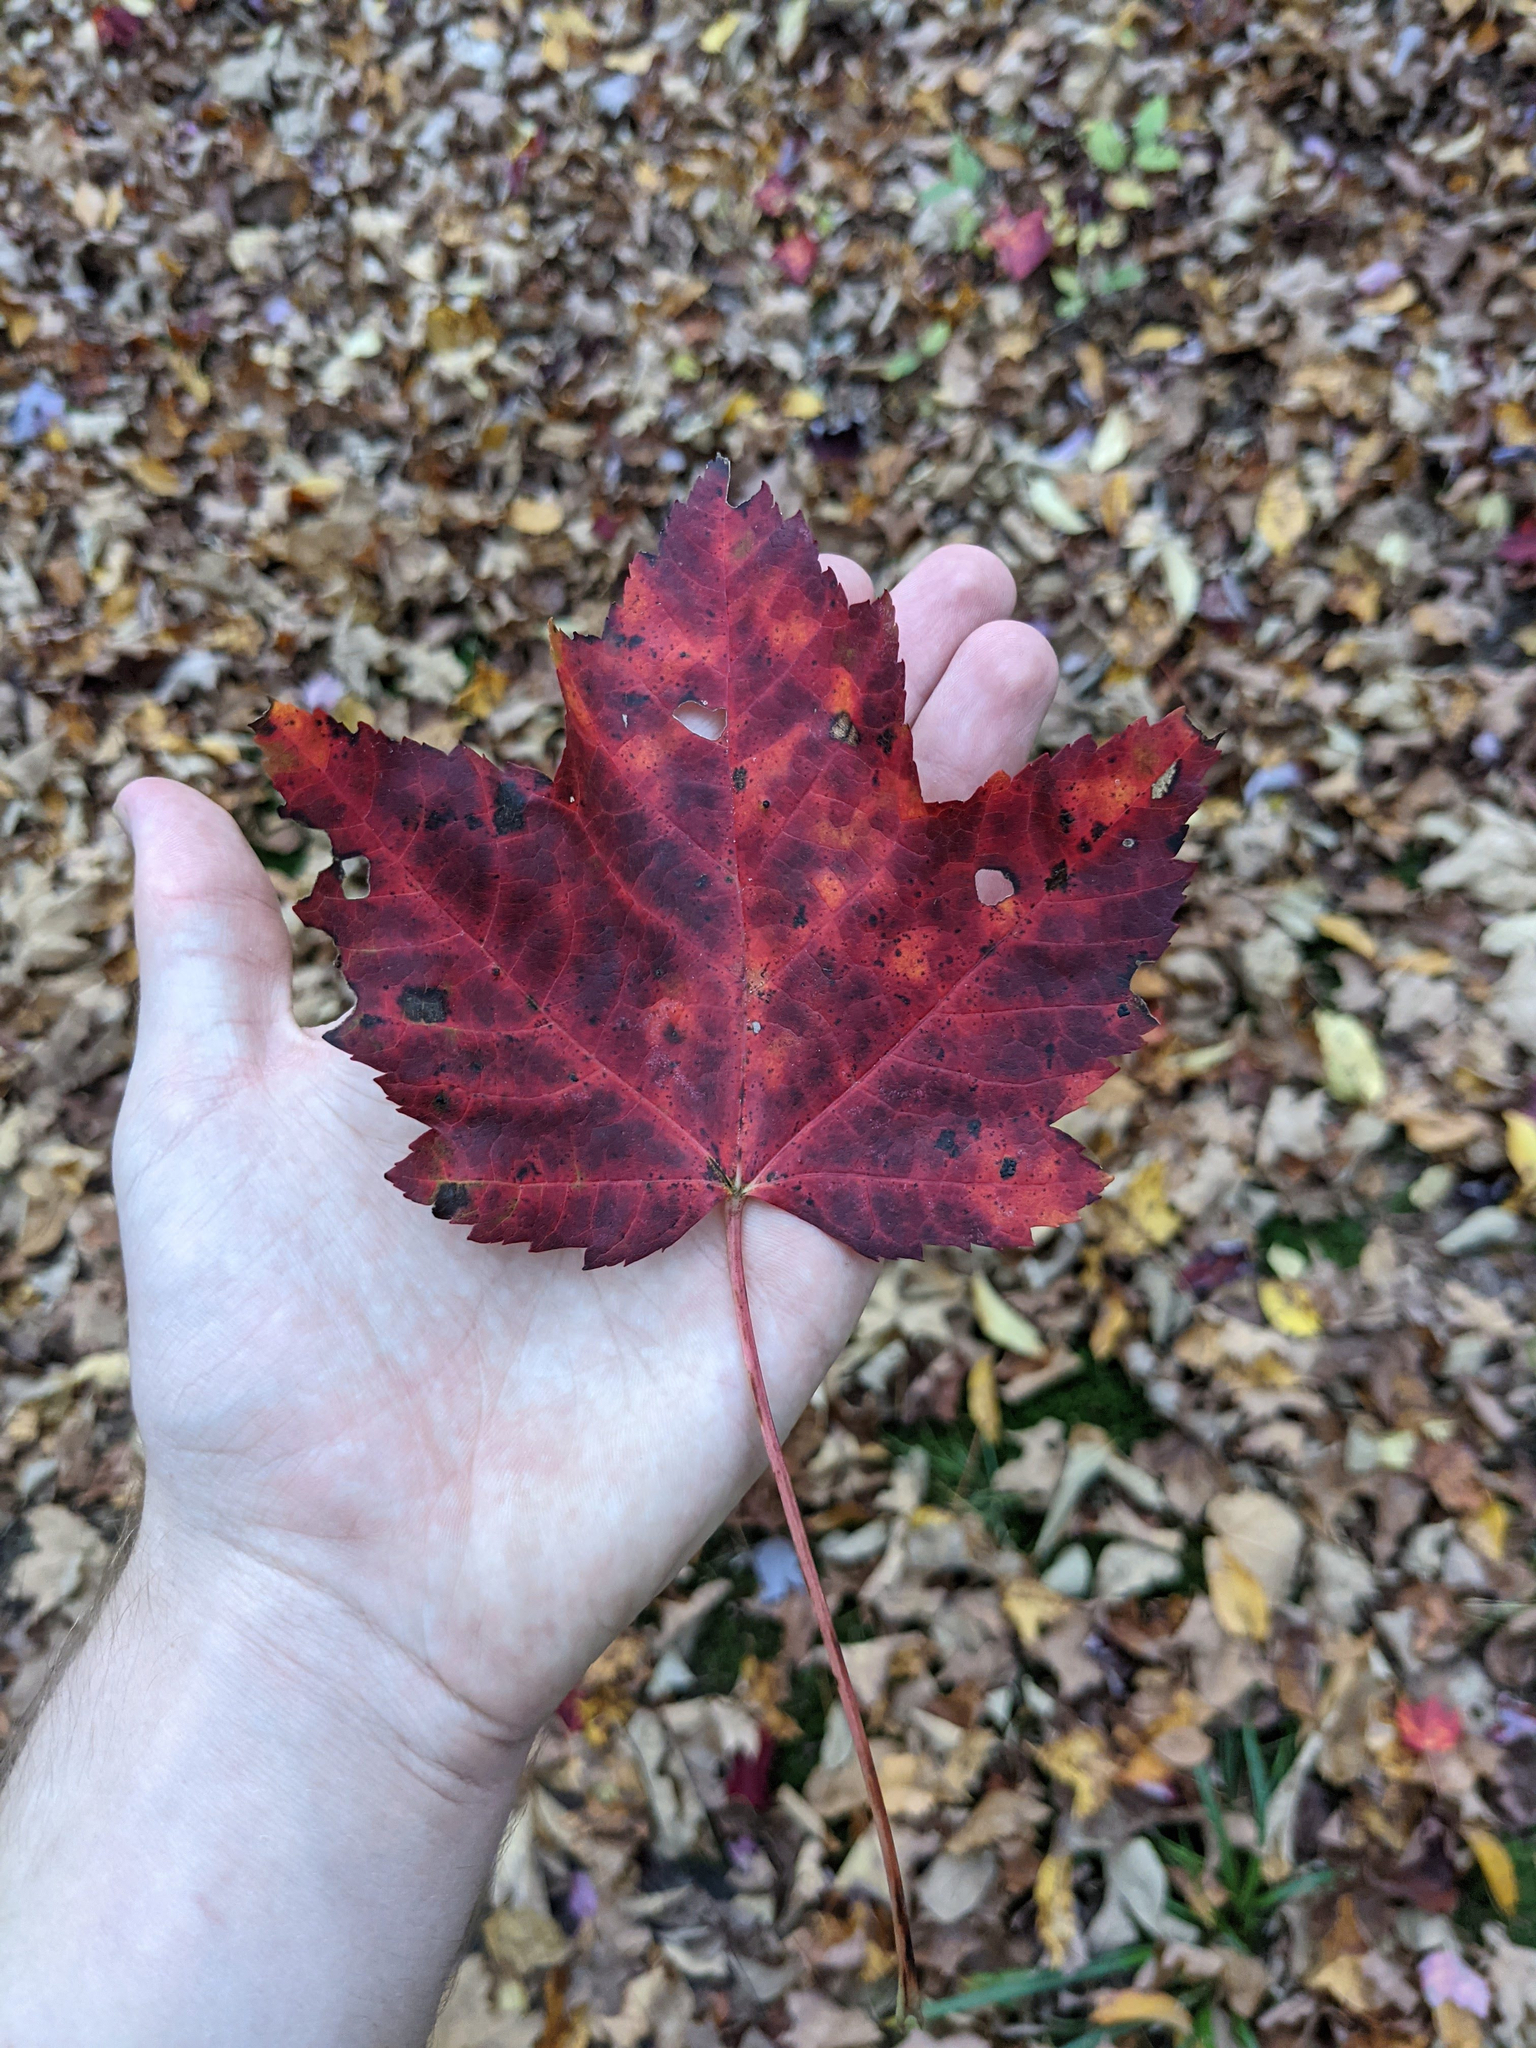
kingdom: Plantae
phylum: Tracheophyta
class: Magnoliopsida
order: Sapindales
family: Sapindaceae
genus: Acer
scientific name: Acer rubrum
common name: Red maple
